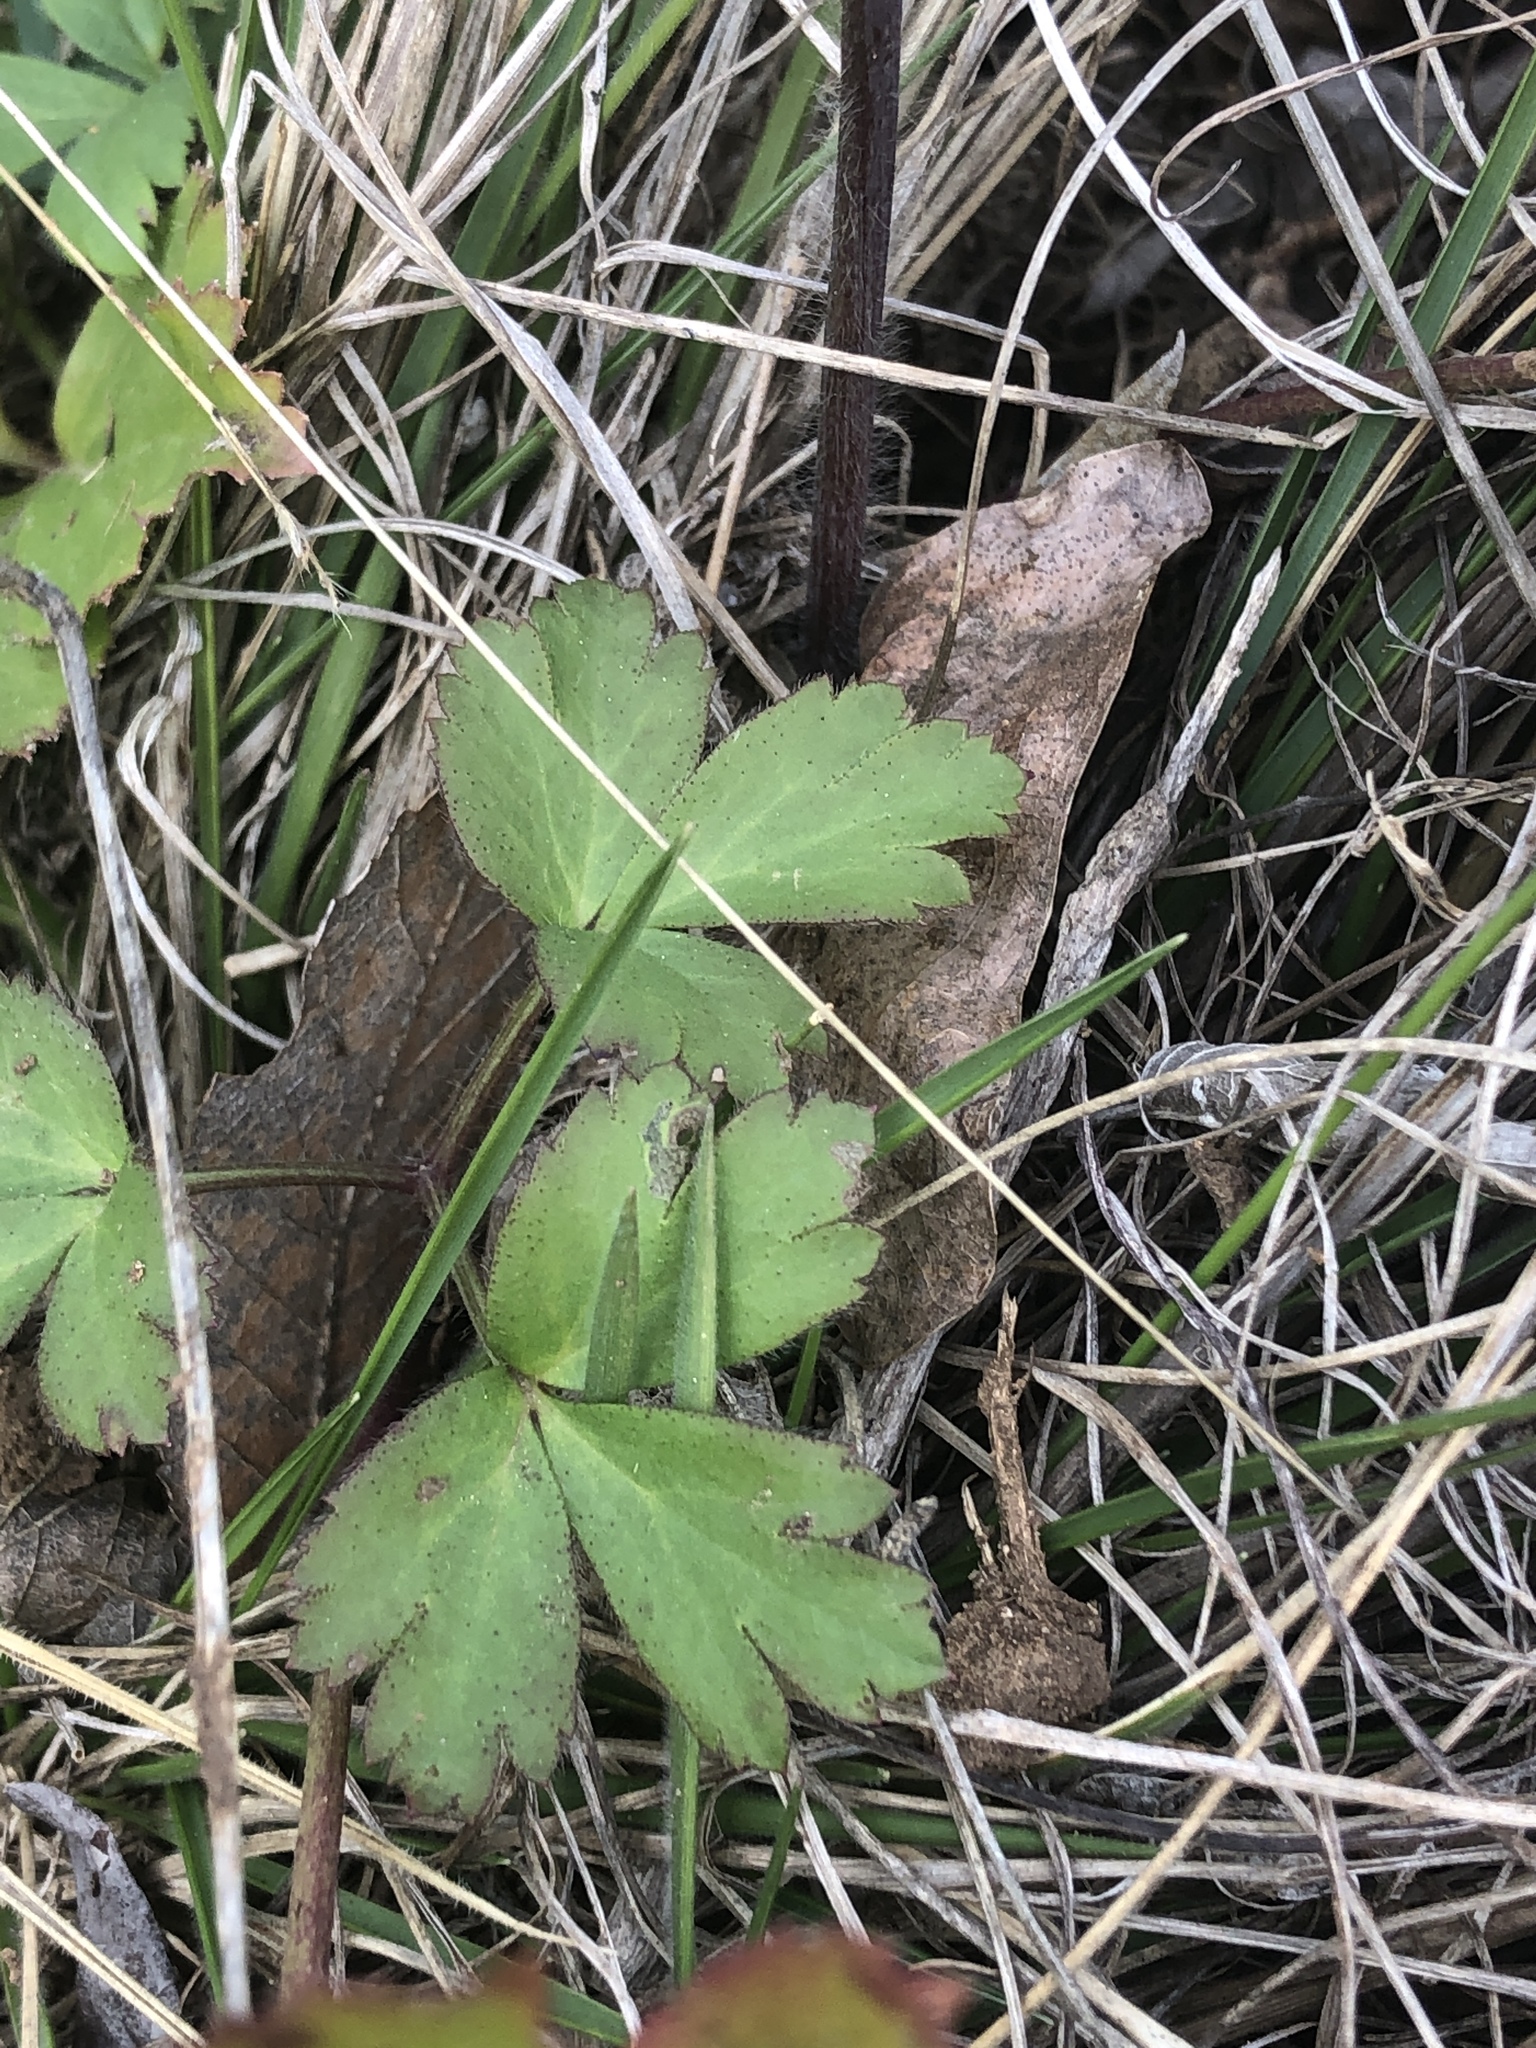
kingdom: Plantae
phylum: Tracheophyta
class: Magnoliopsida
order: Ranunculales
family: Ranunculaceae
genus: Anemone
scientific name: Anemone berlandieri
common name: Ten-petal anemone
